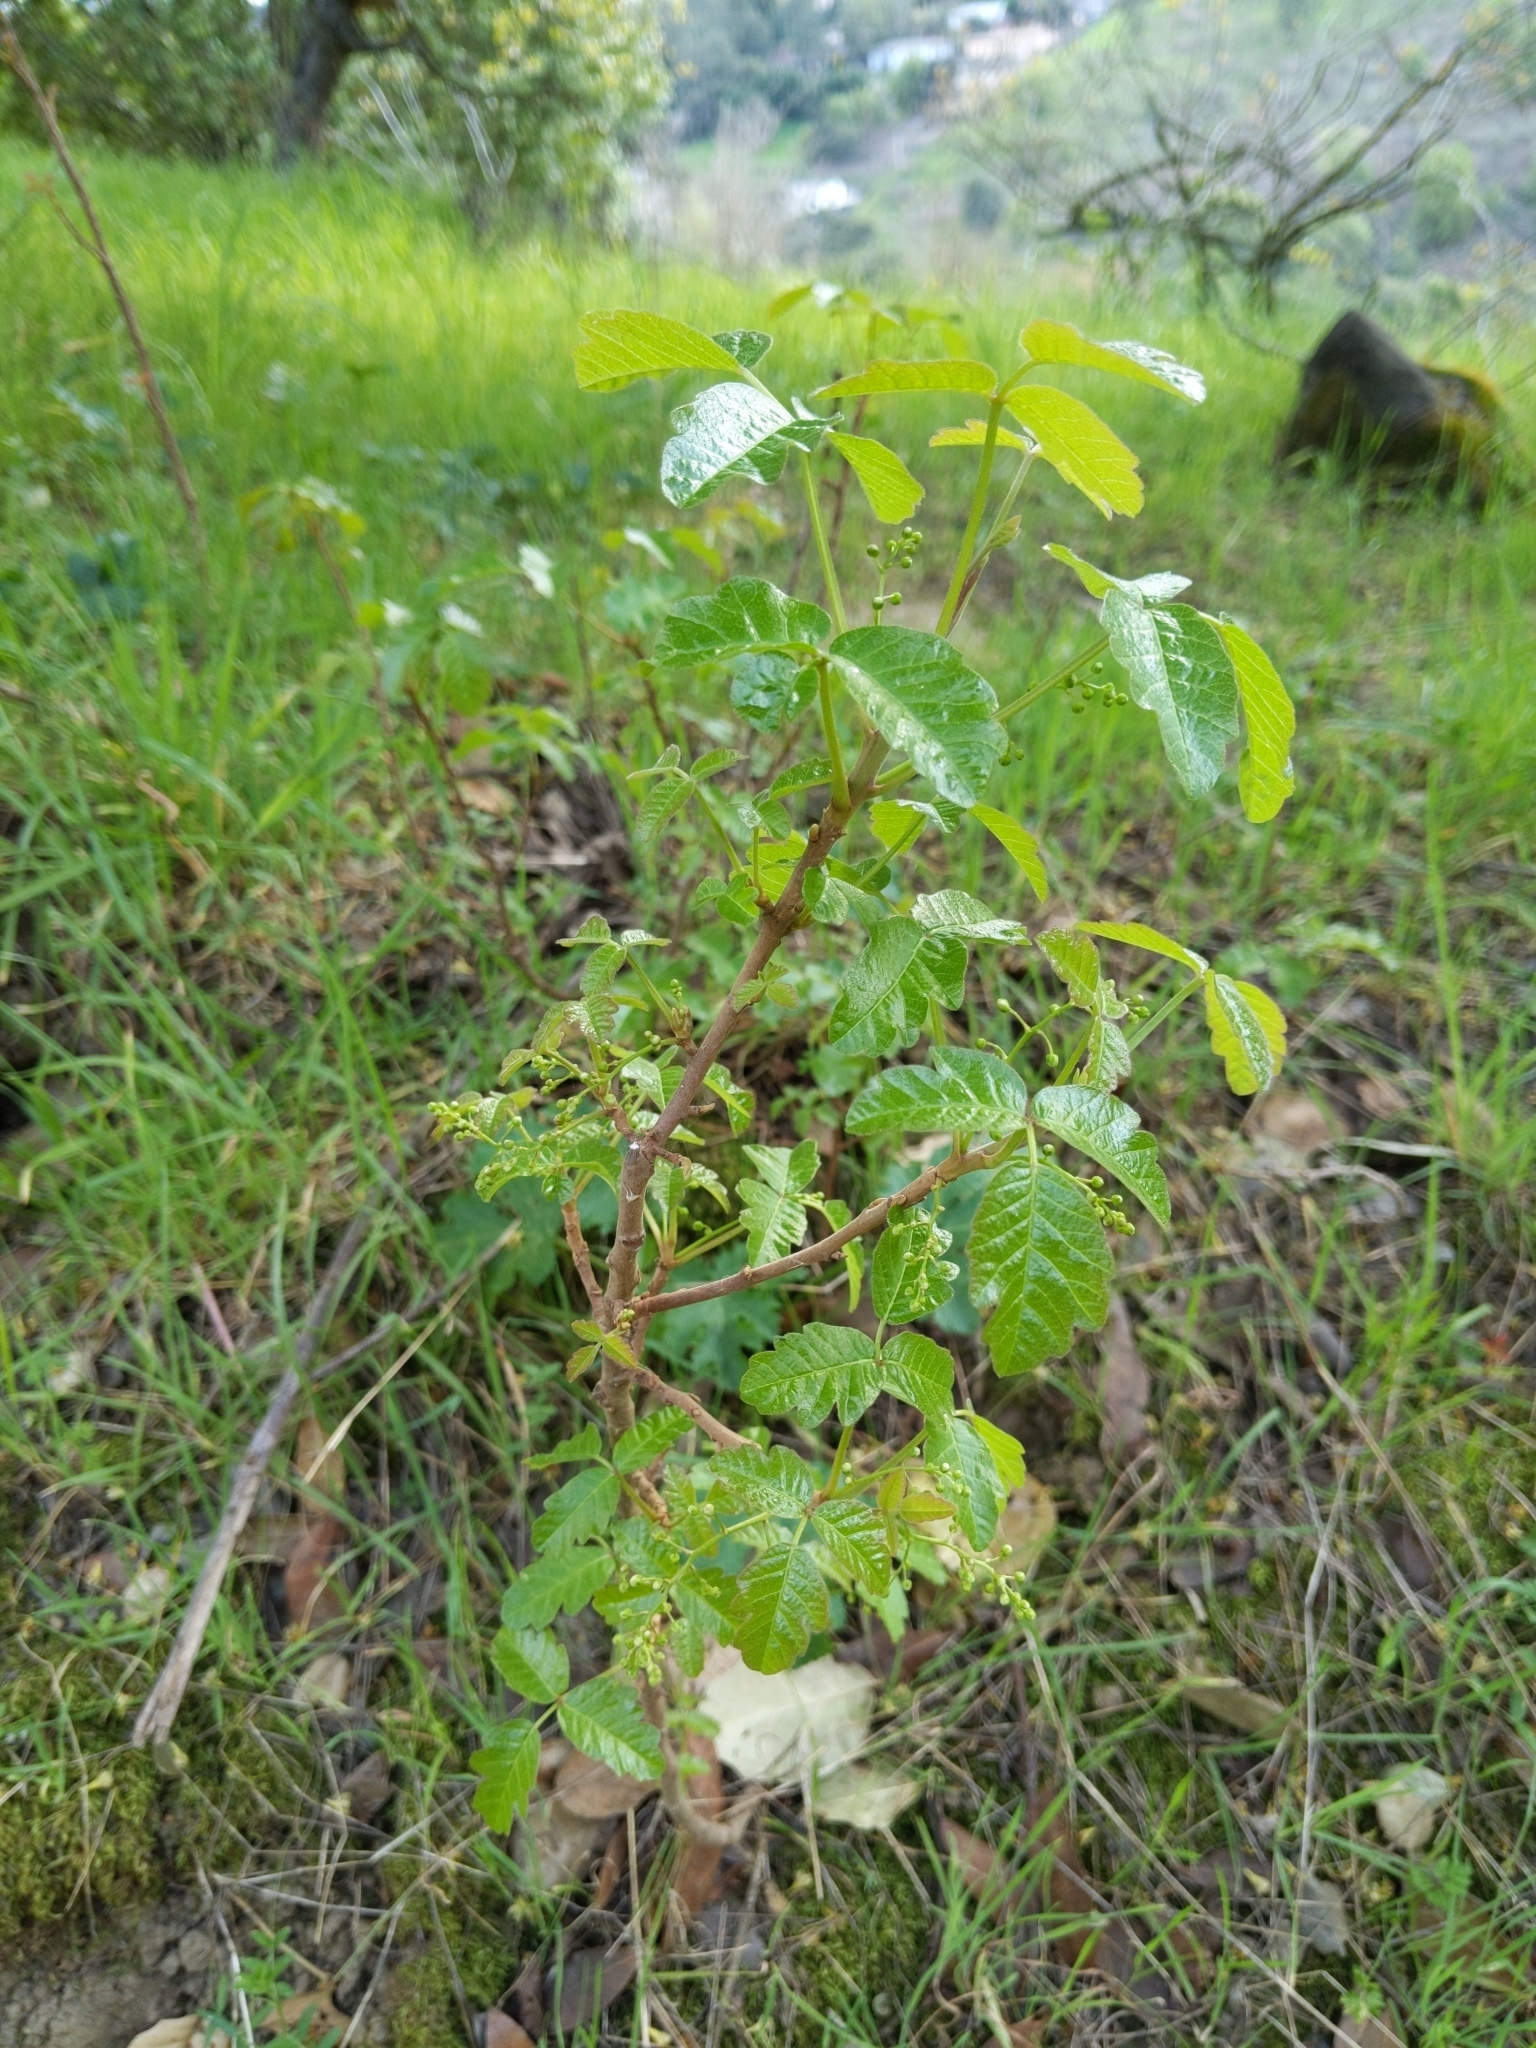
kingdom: Plantae
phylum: Tracheophyta
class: Magnoliopsida
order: Sapindales
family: Anacardiaceae
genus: Toxicodendron
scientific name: Toxicodendron diversilobum
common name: Pacific poison-oak
